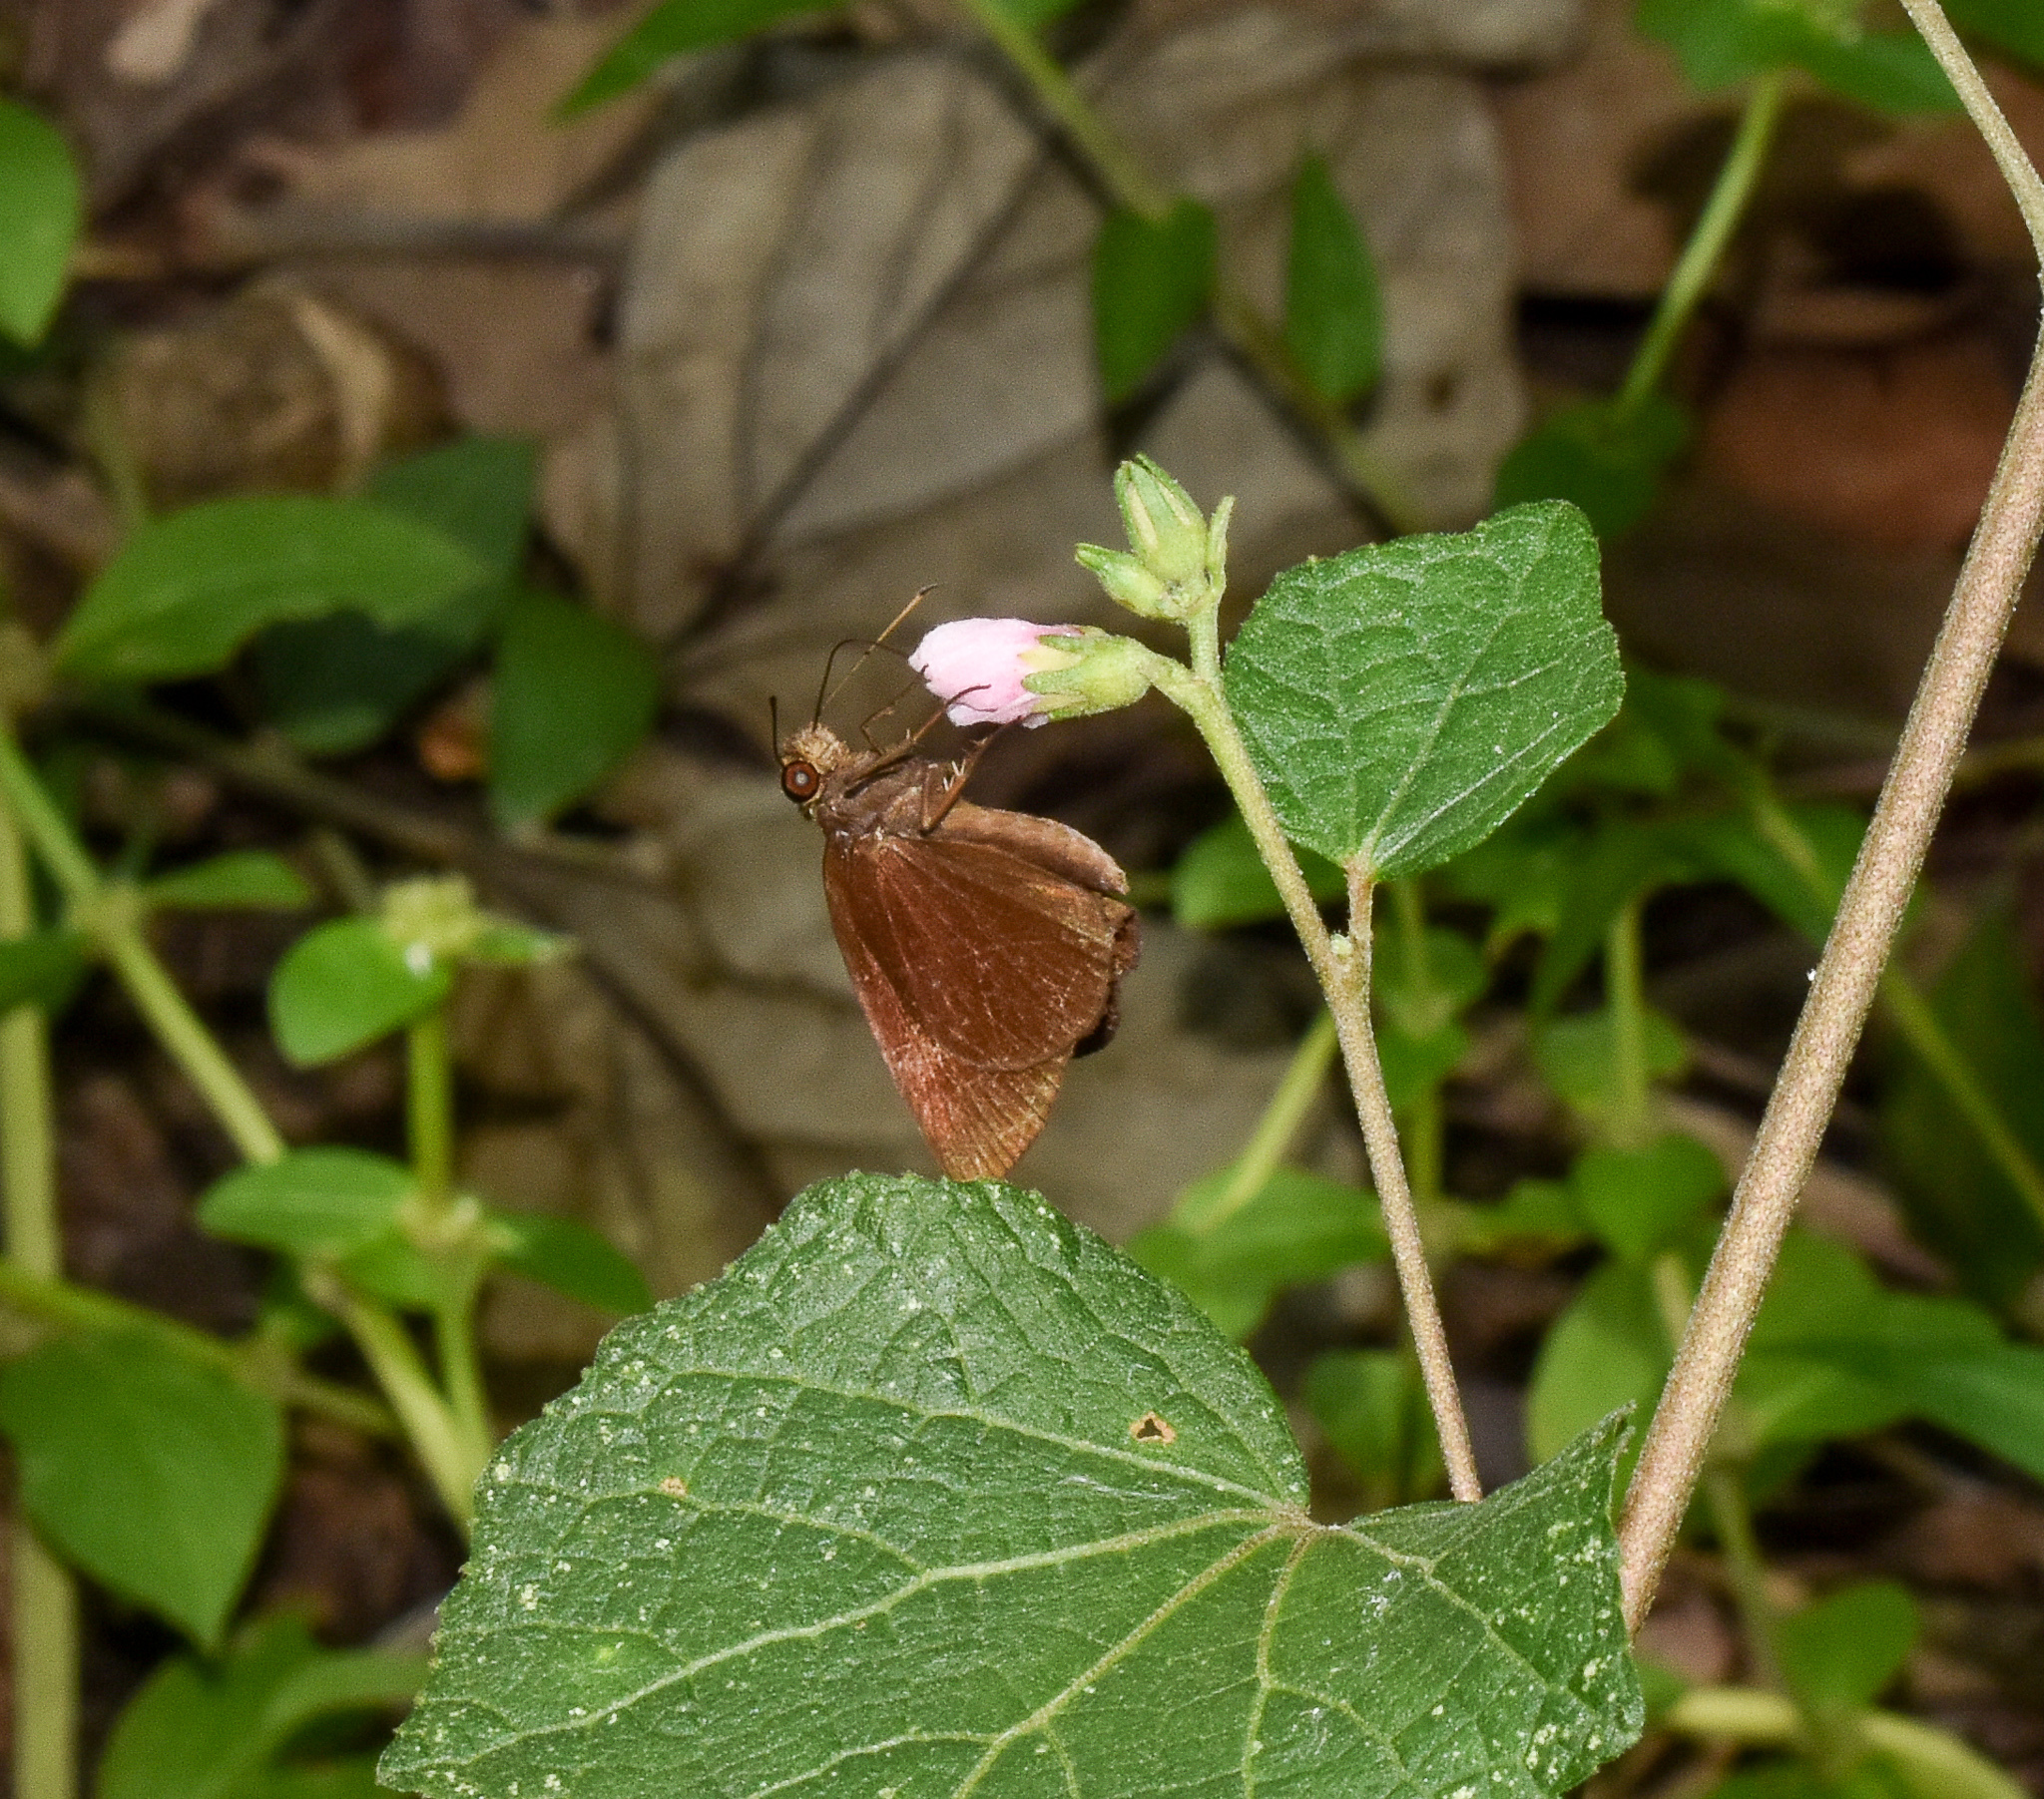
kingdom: Animalia
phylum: Arthropoda
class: Insecta
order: Lepidoptera
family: Hesperiidae
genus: Astictopterus
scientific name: Astictopterus jama
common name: Forest hopper
